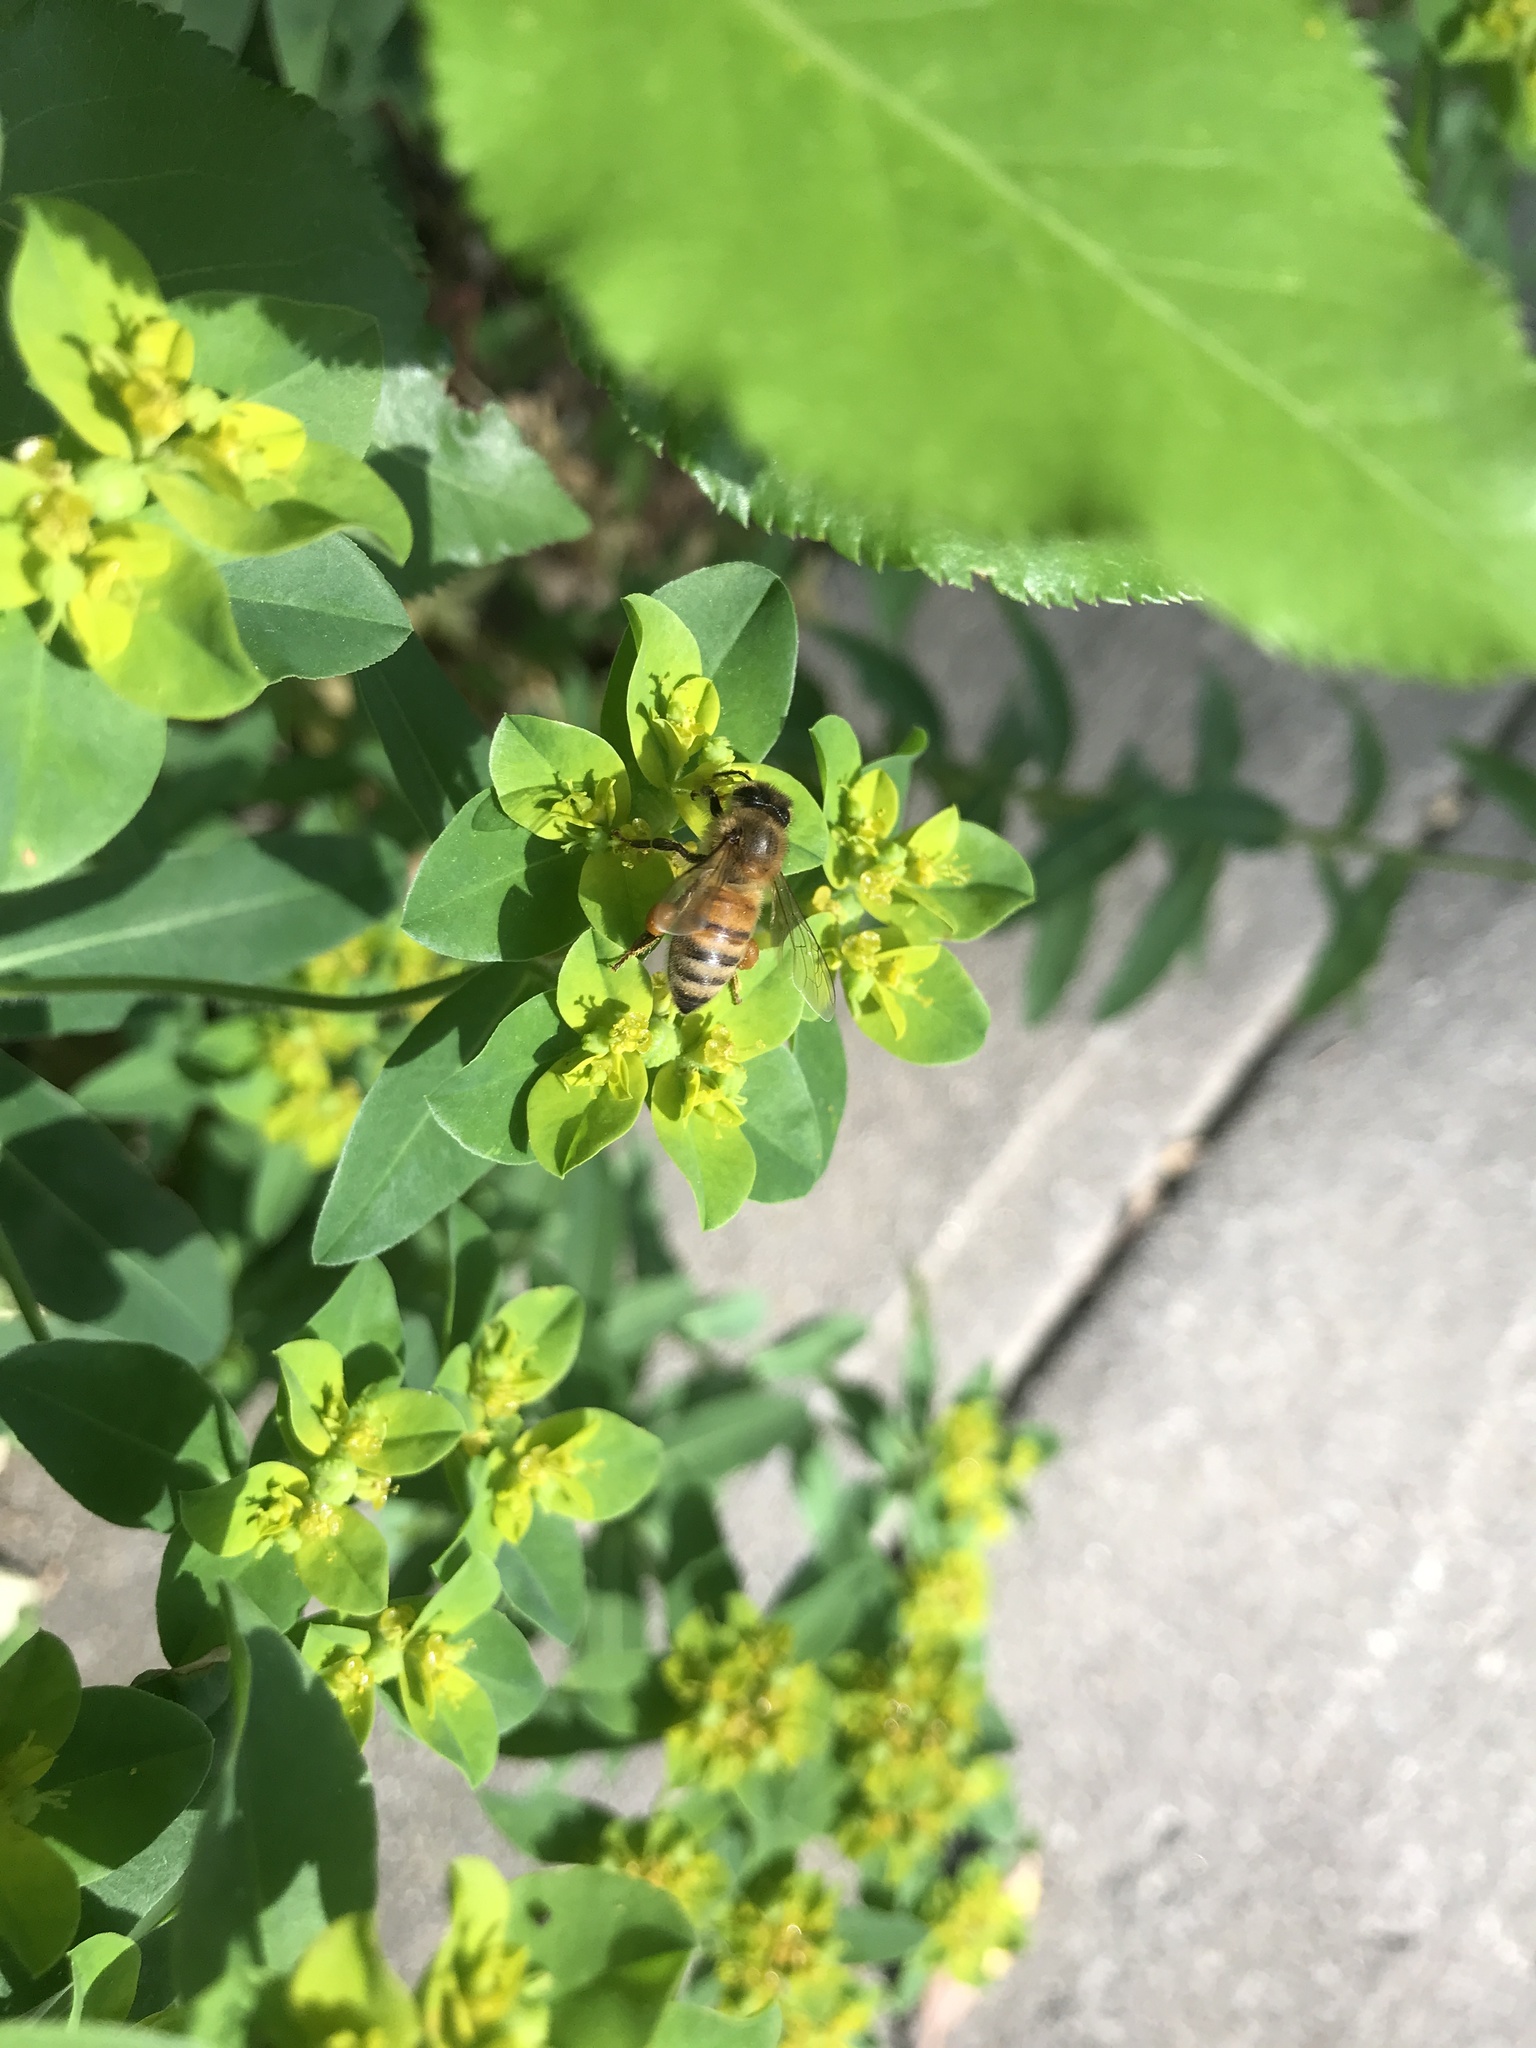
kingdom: Animalia
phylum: Arthropoda
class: Insecta
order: Hymenoptera
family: Apidae
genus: Apis
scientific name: Apis mellifera
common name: Honey bee
